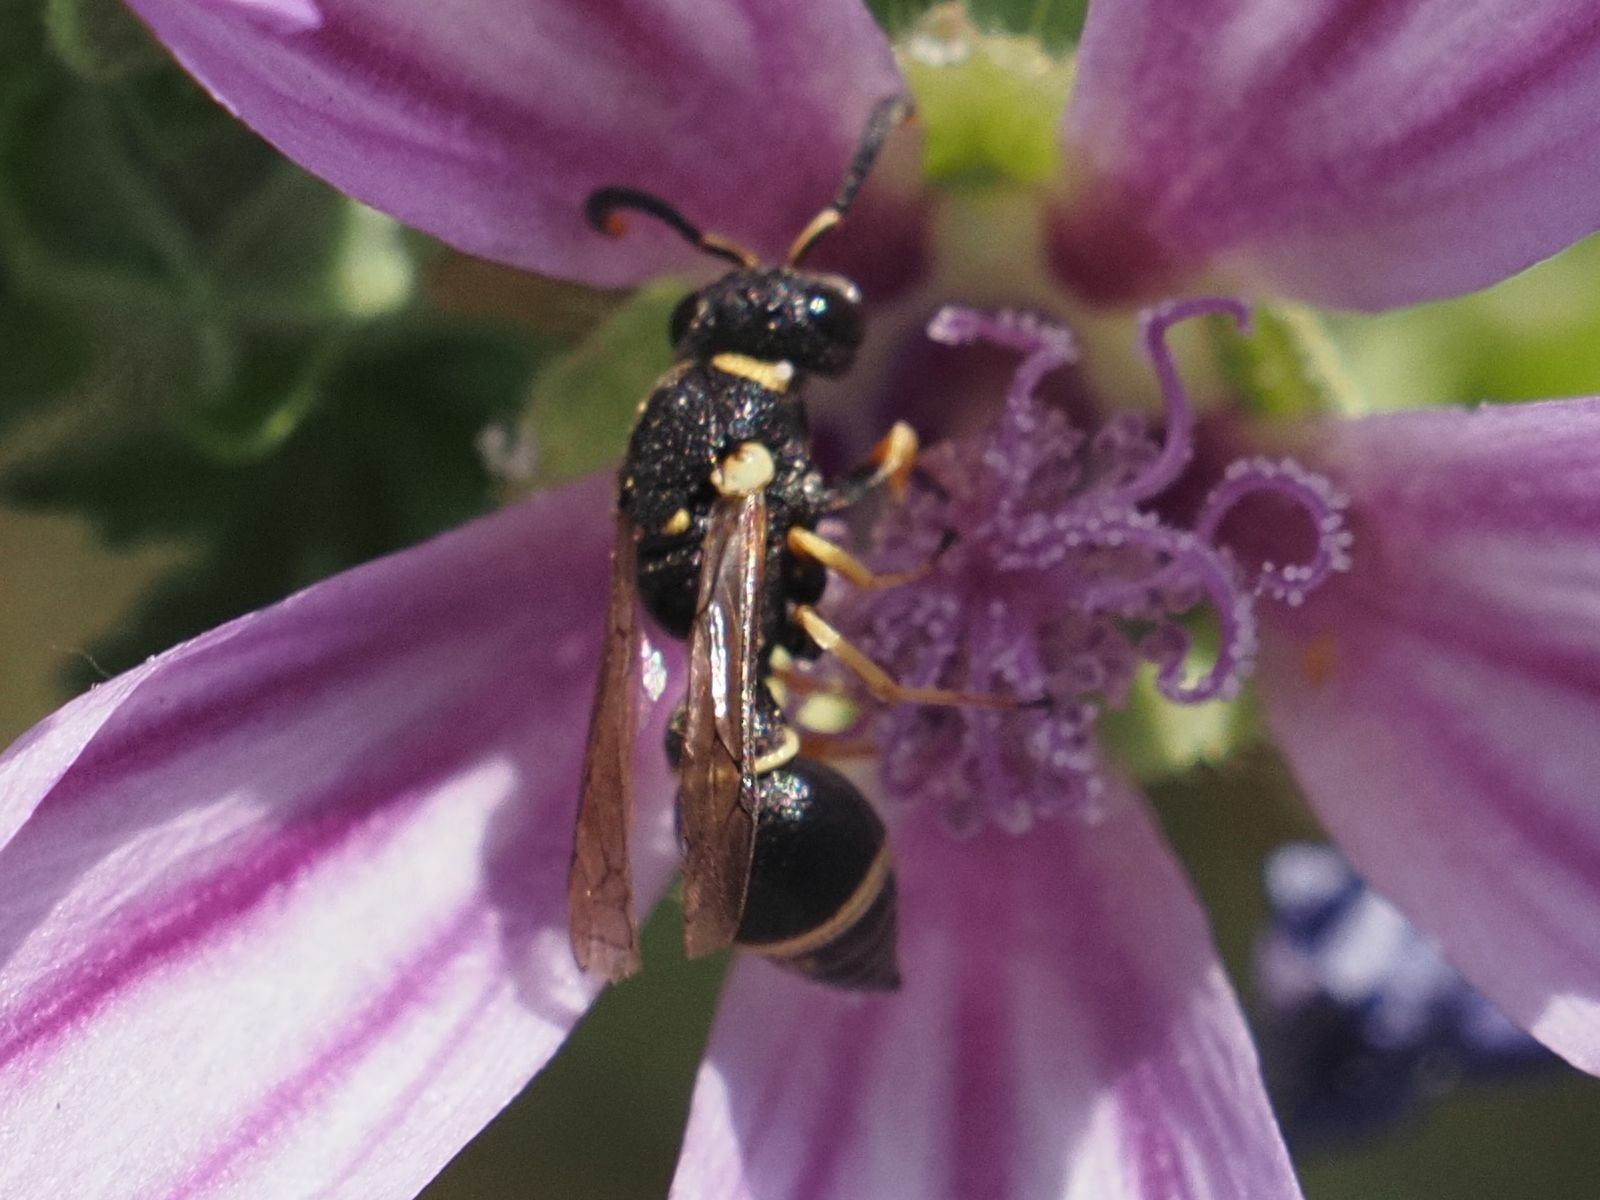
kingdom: Animalia
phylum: Arthropoda
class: Insecta
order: Hymenoptera
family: Eumenidae
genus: Leptochilus
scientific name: Leptochilus regulus
